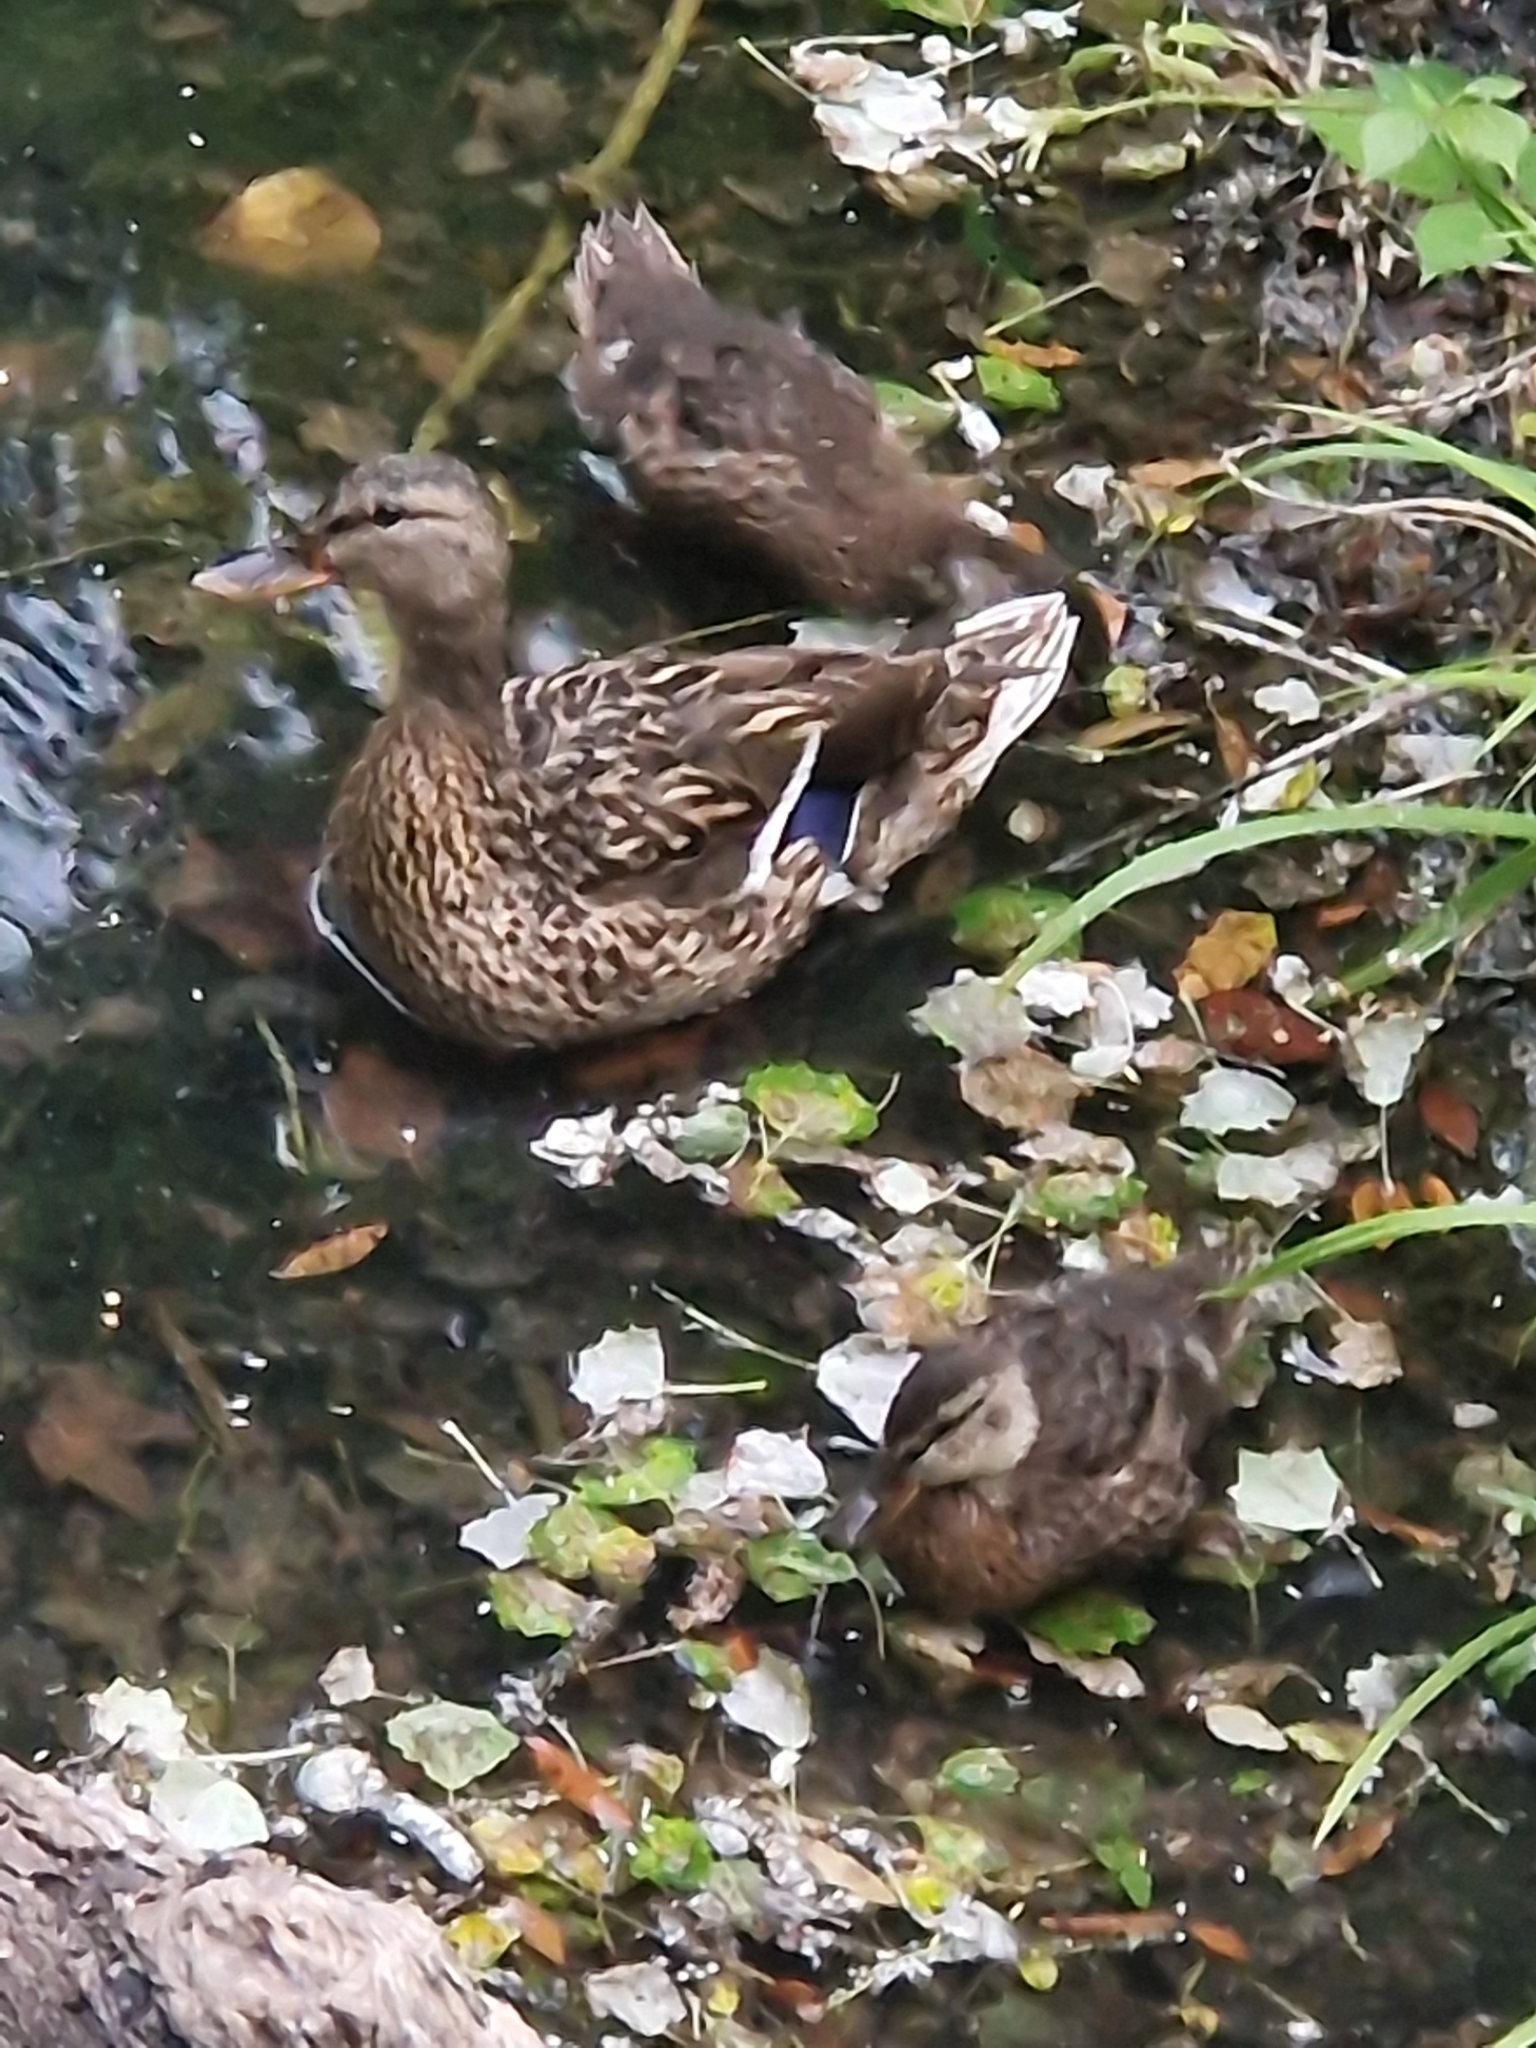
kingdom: Animalia
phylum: Chordata
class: Aves
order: Anseriformes
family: Anatidae
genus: Anas
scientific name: Anas platyrhynchos
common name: Mallard
